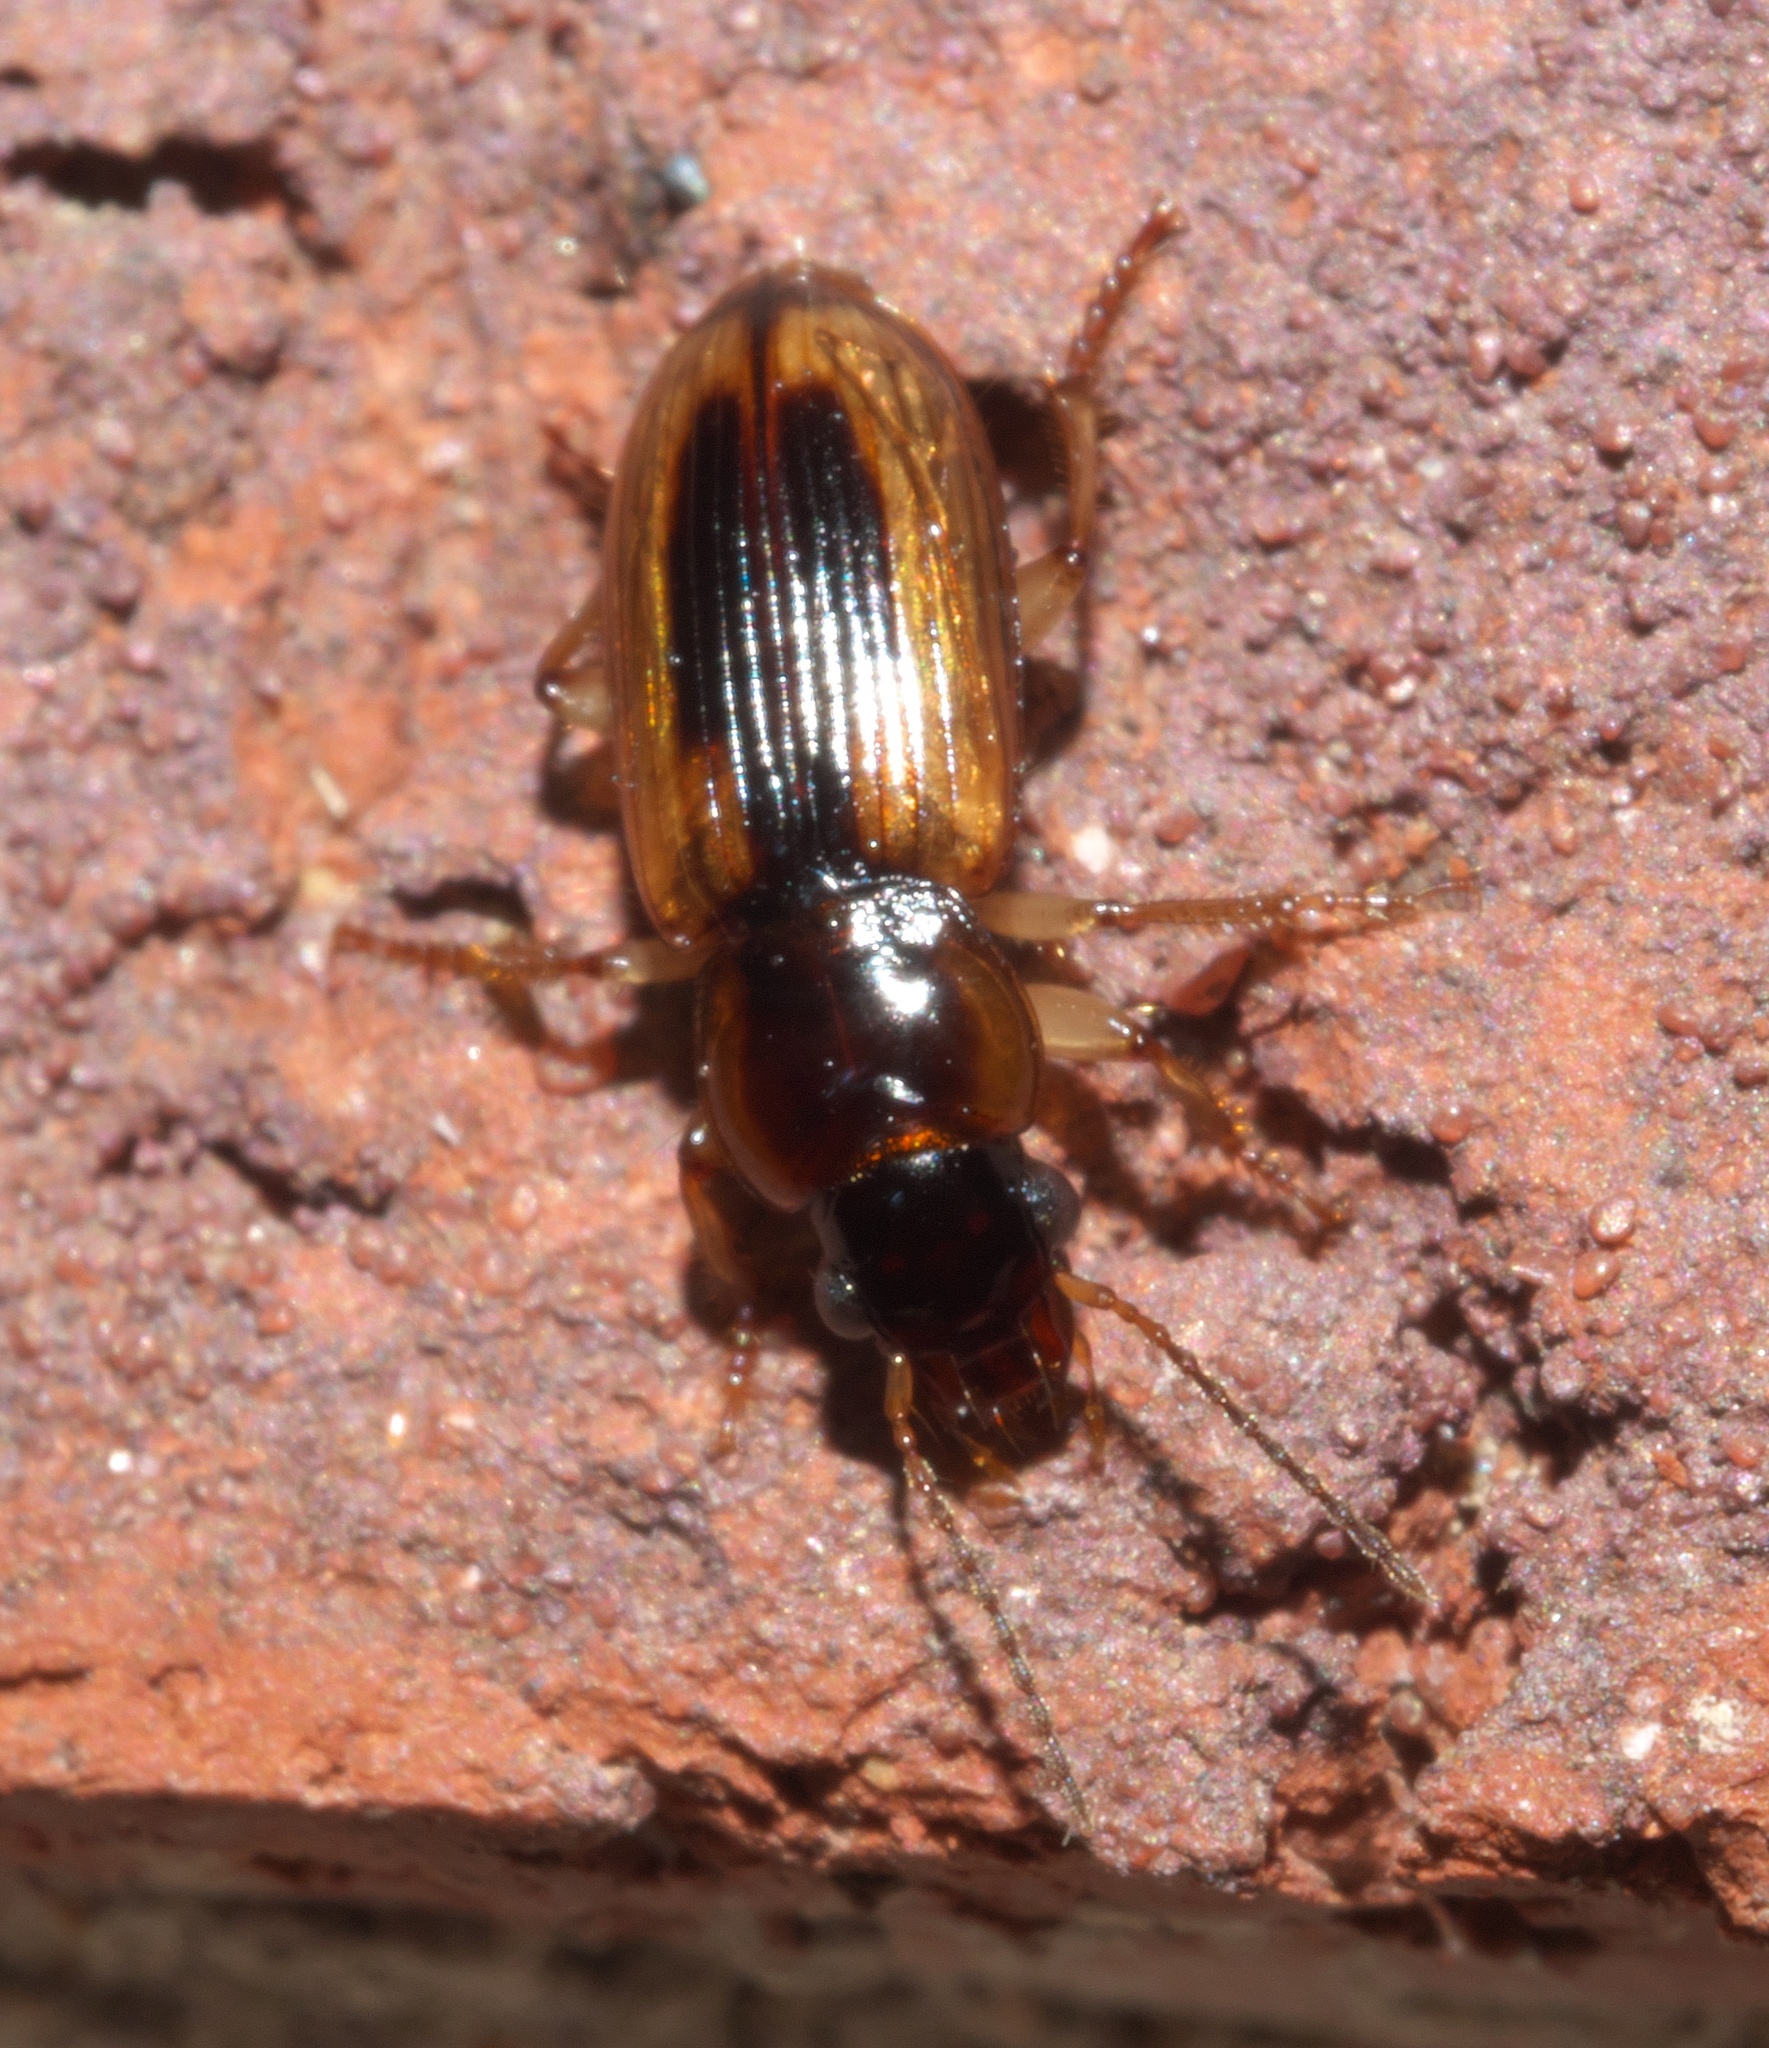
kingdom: Animalia
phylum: Arthropoda
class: Insecta
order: Coleoptera
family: Carabidae
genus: Stenolophus
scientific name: Stenolophus lecontei
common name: Leconte's seedcorn beetle
